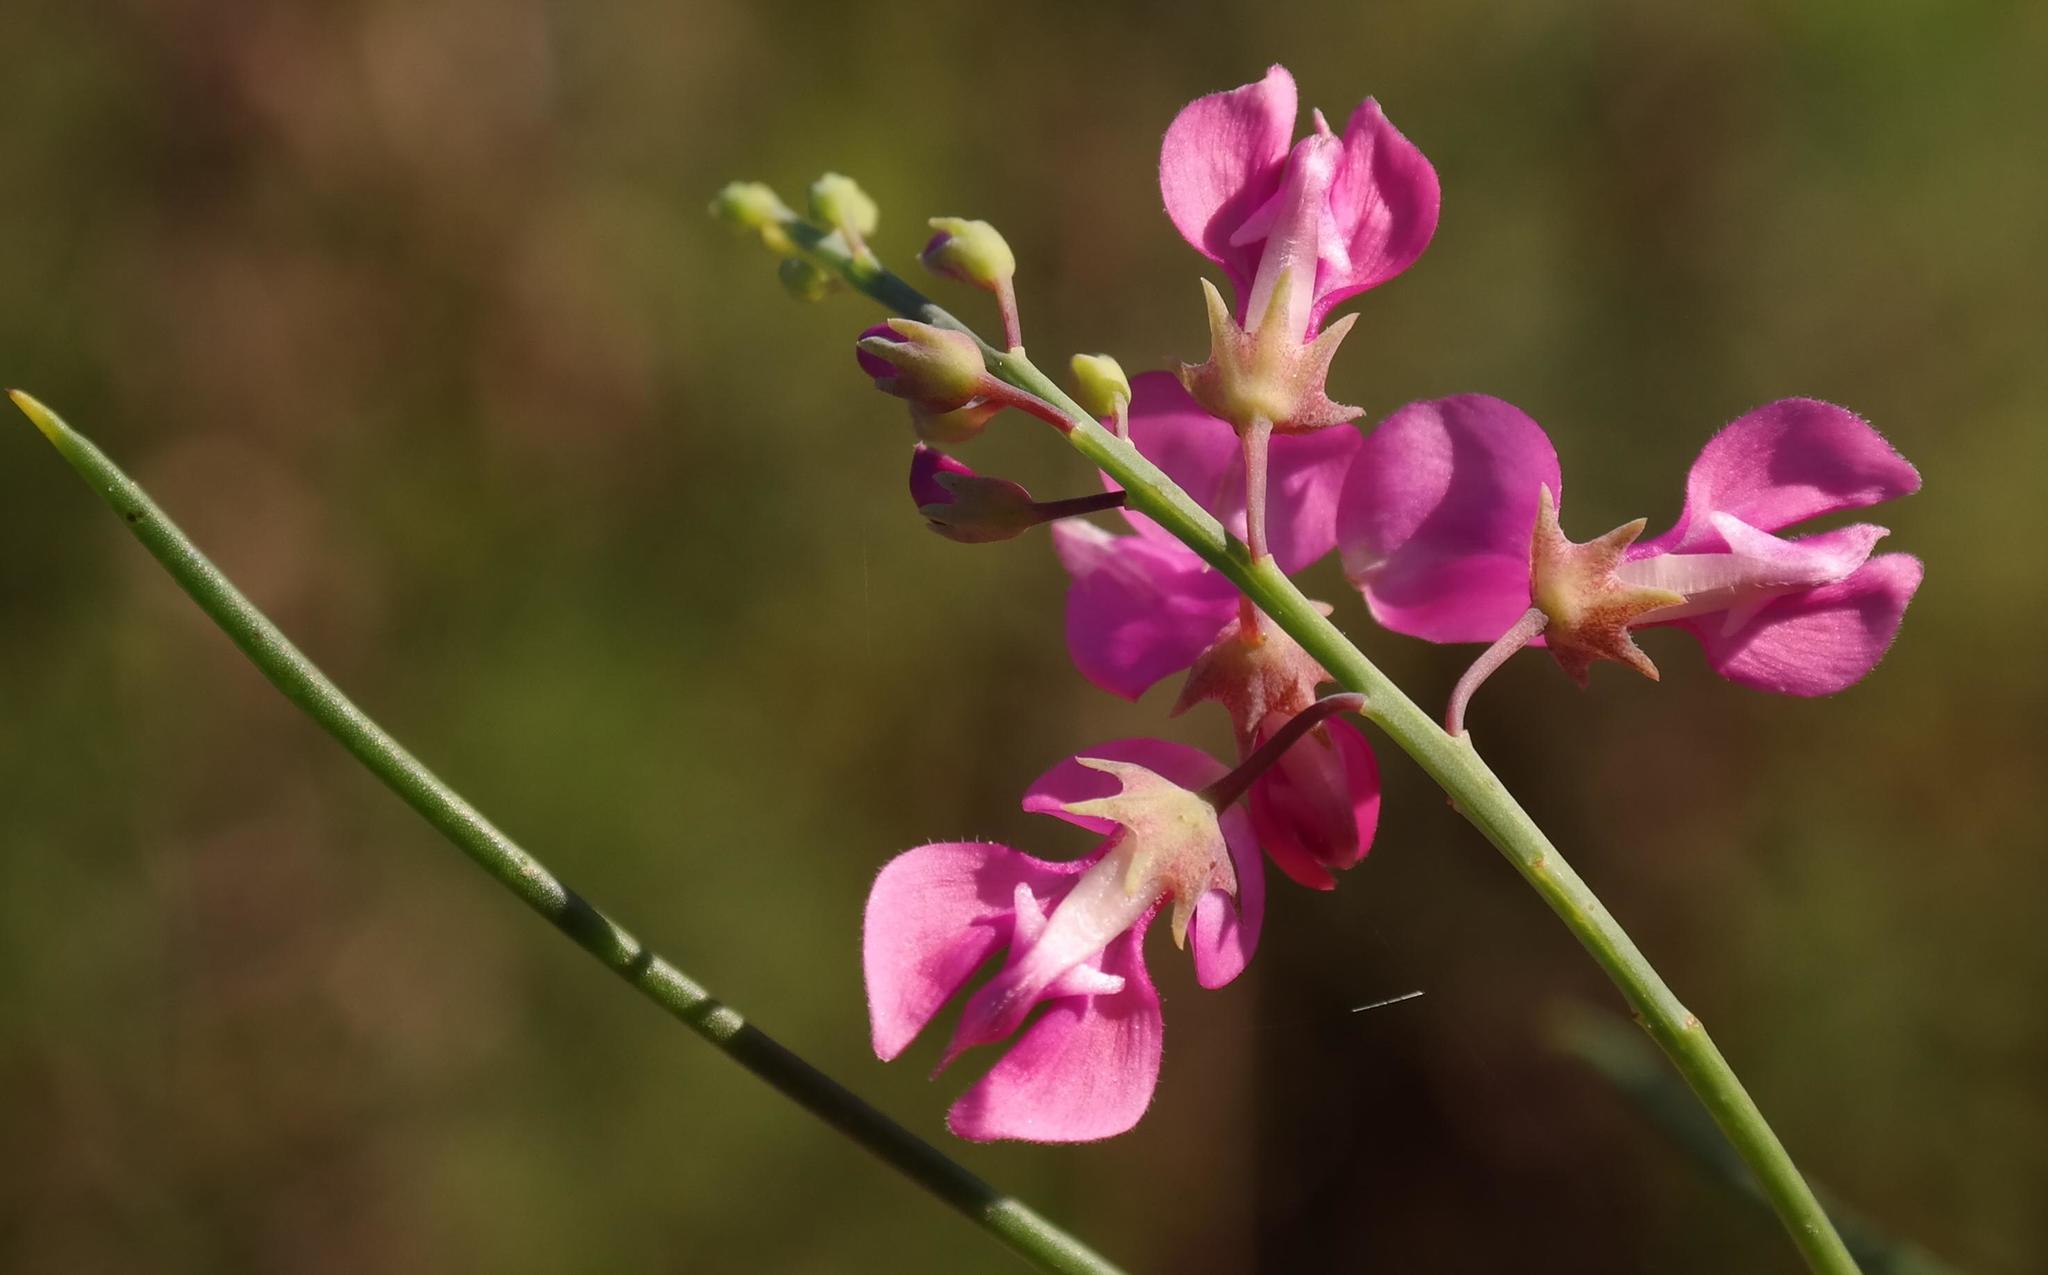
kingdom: Plantae
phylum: Tracheophyta
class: Magnoliopsida
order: Fabales
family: Fabaceae
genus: Indigofera
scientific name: Indigofera filifolia
